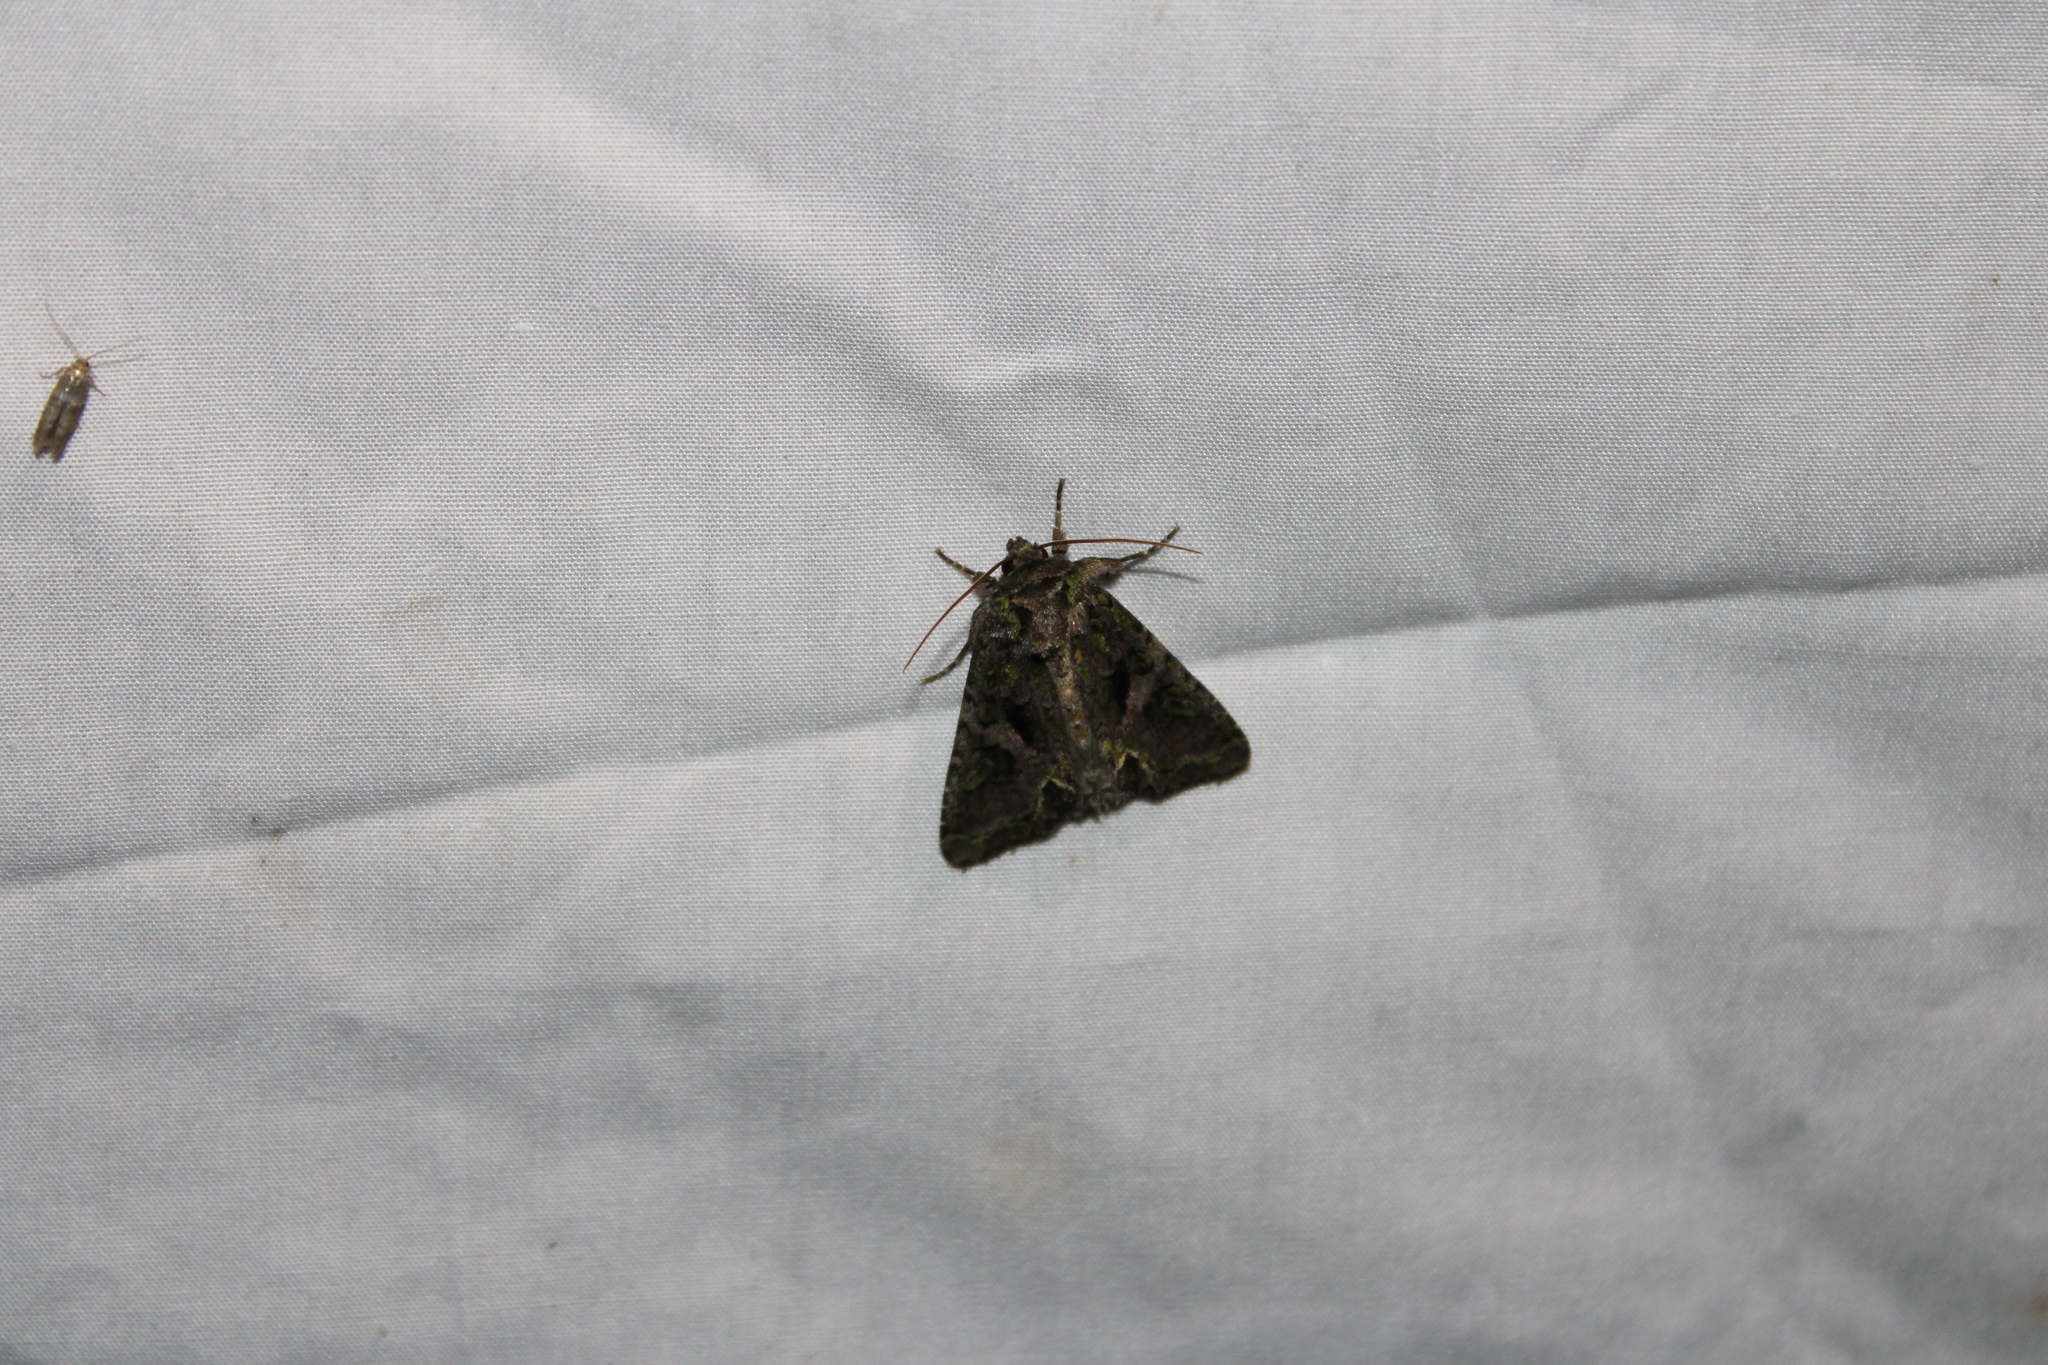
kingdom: Animalia
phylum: Arthropoda
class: Insecta
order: Lepidoptera
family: Noctuidae
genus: Trachea
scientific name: Trachea delicata
